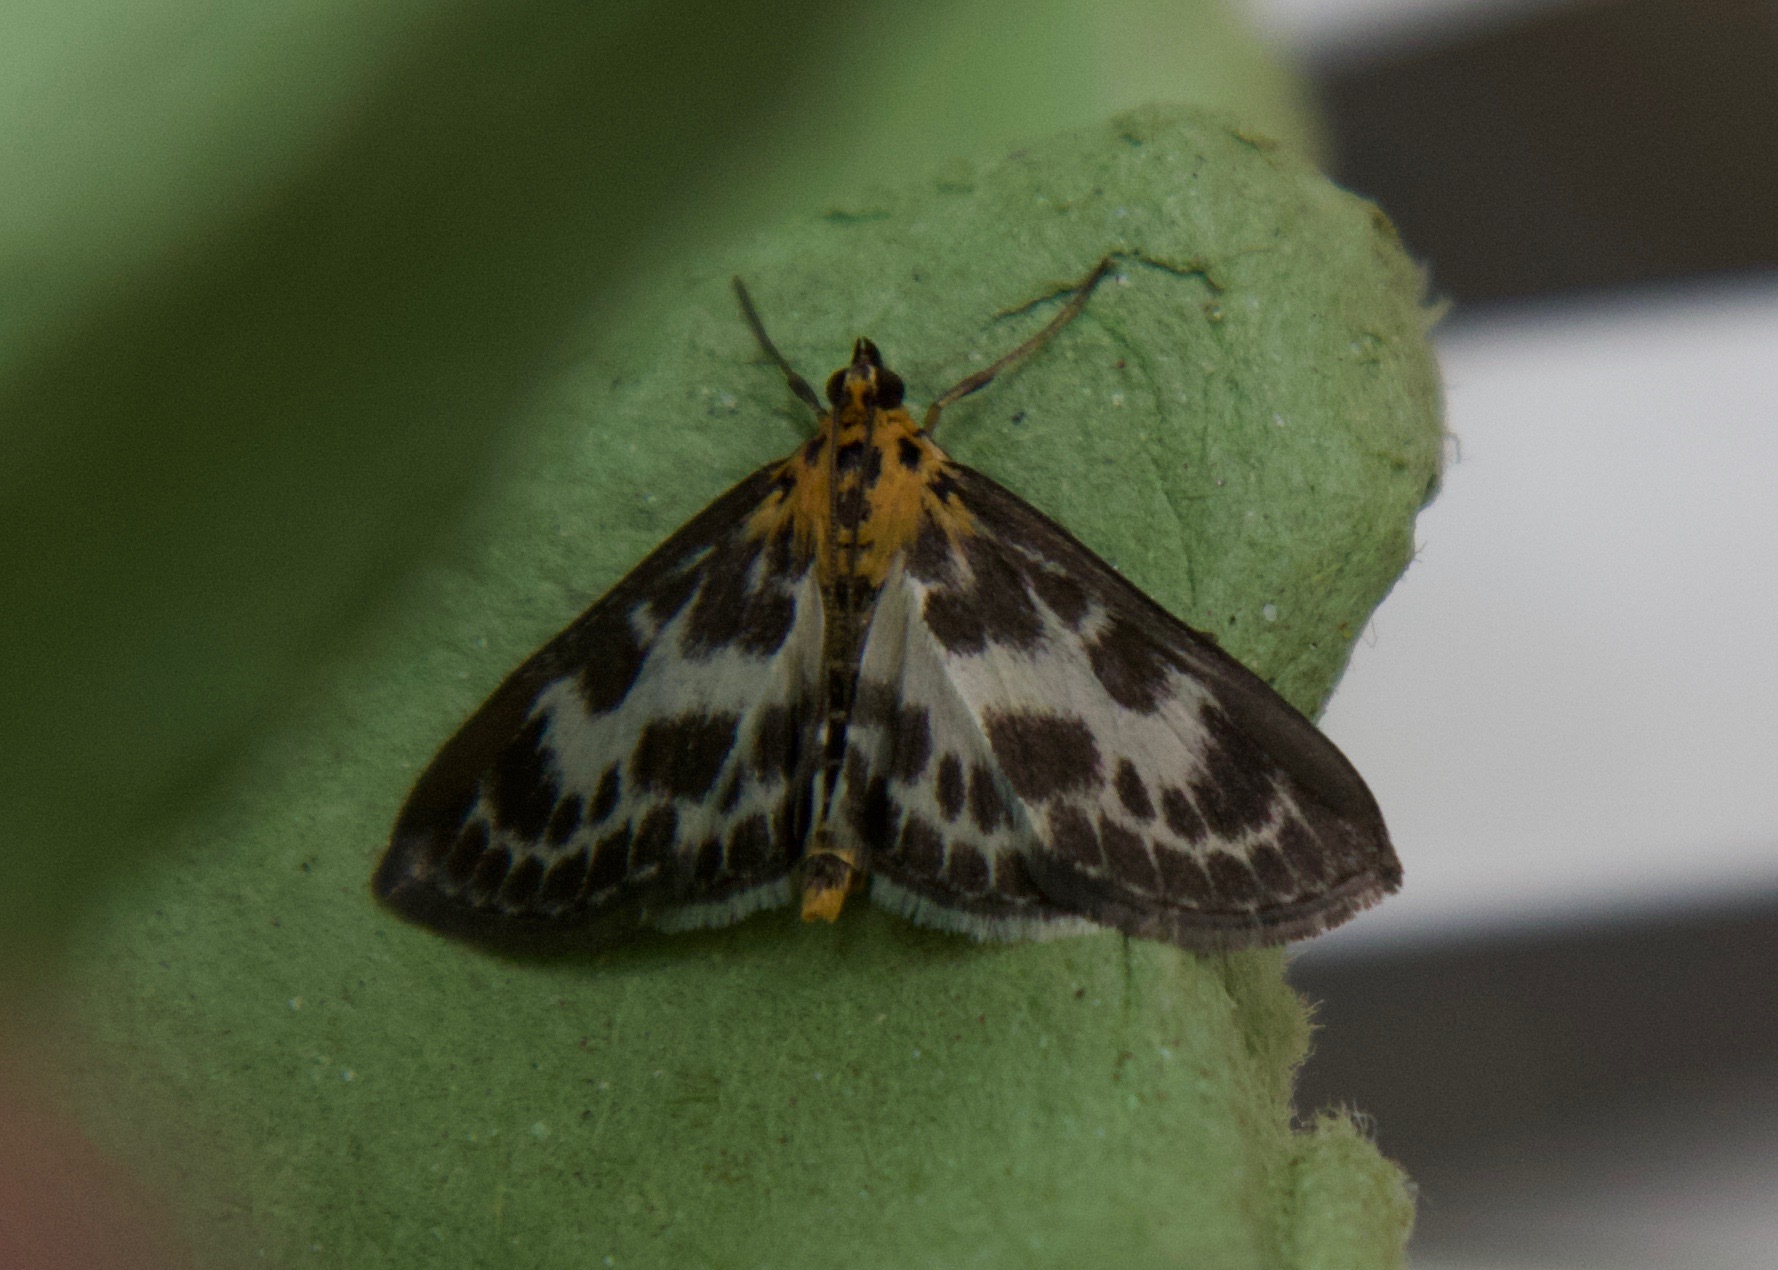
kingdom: Animalia
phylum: Arthropoda
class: Insecta
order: Lepidoptera
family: Crambidae
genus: Anania
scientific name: Anania hortulata
